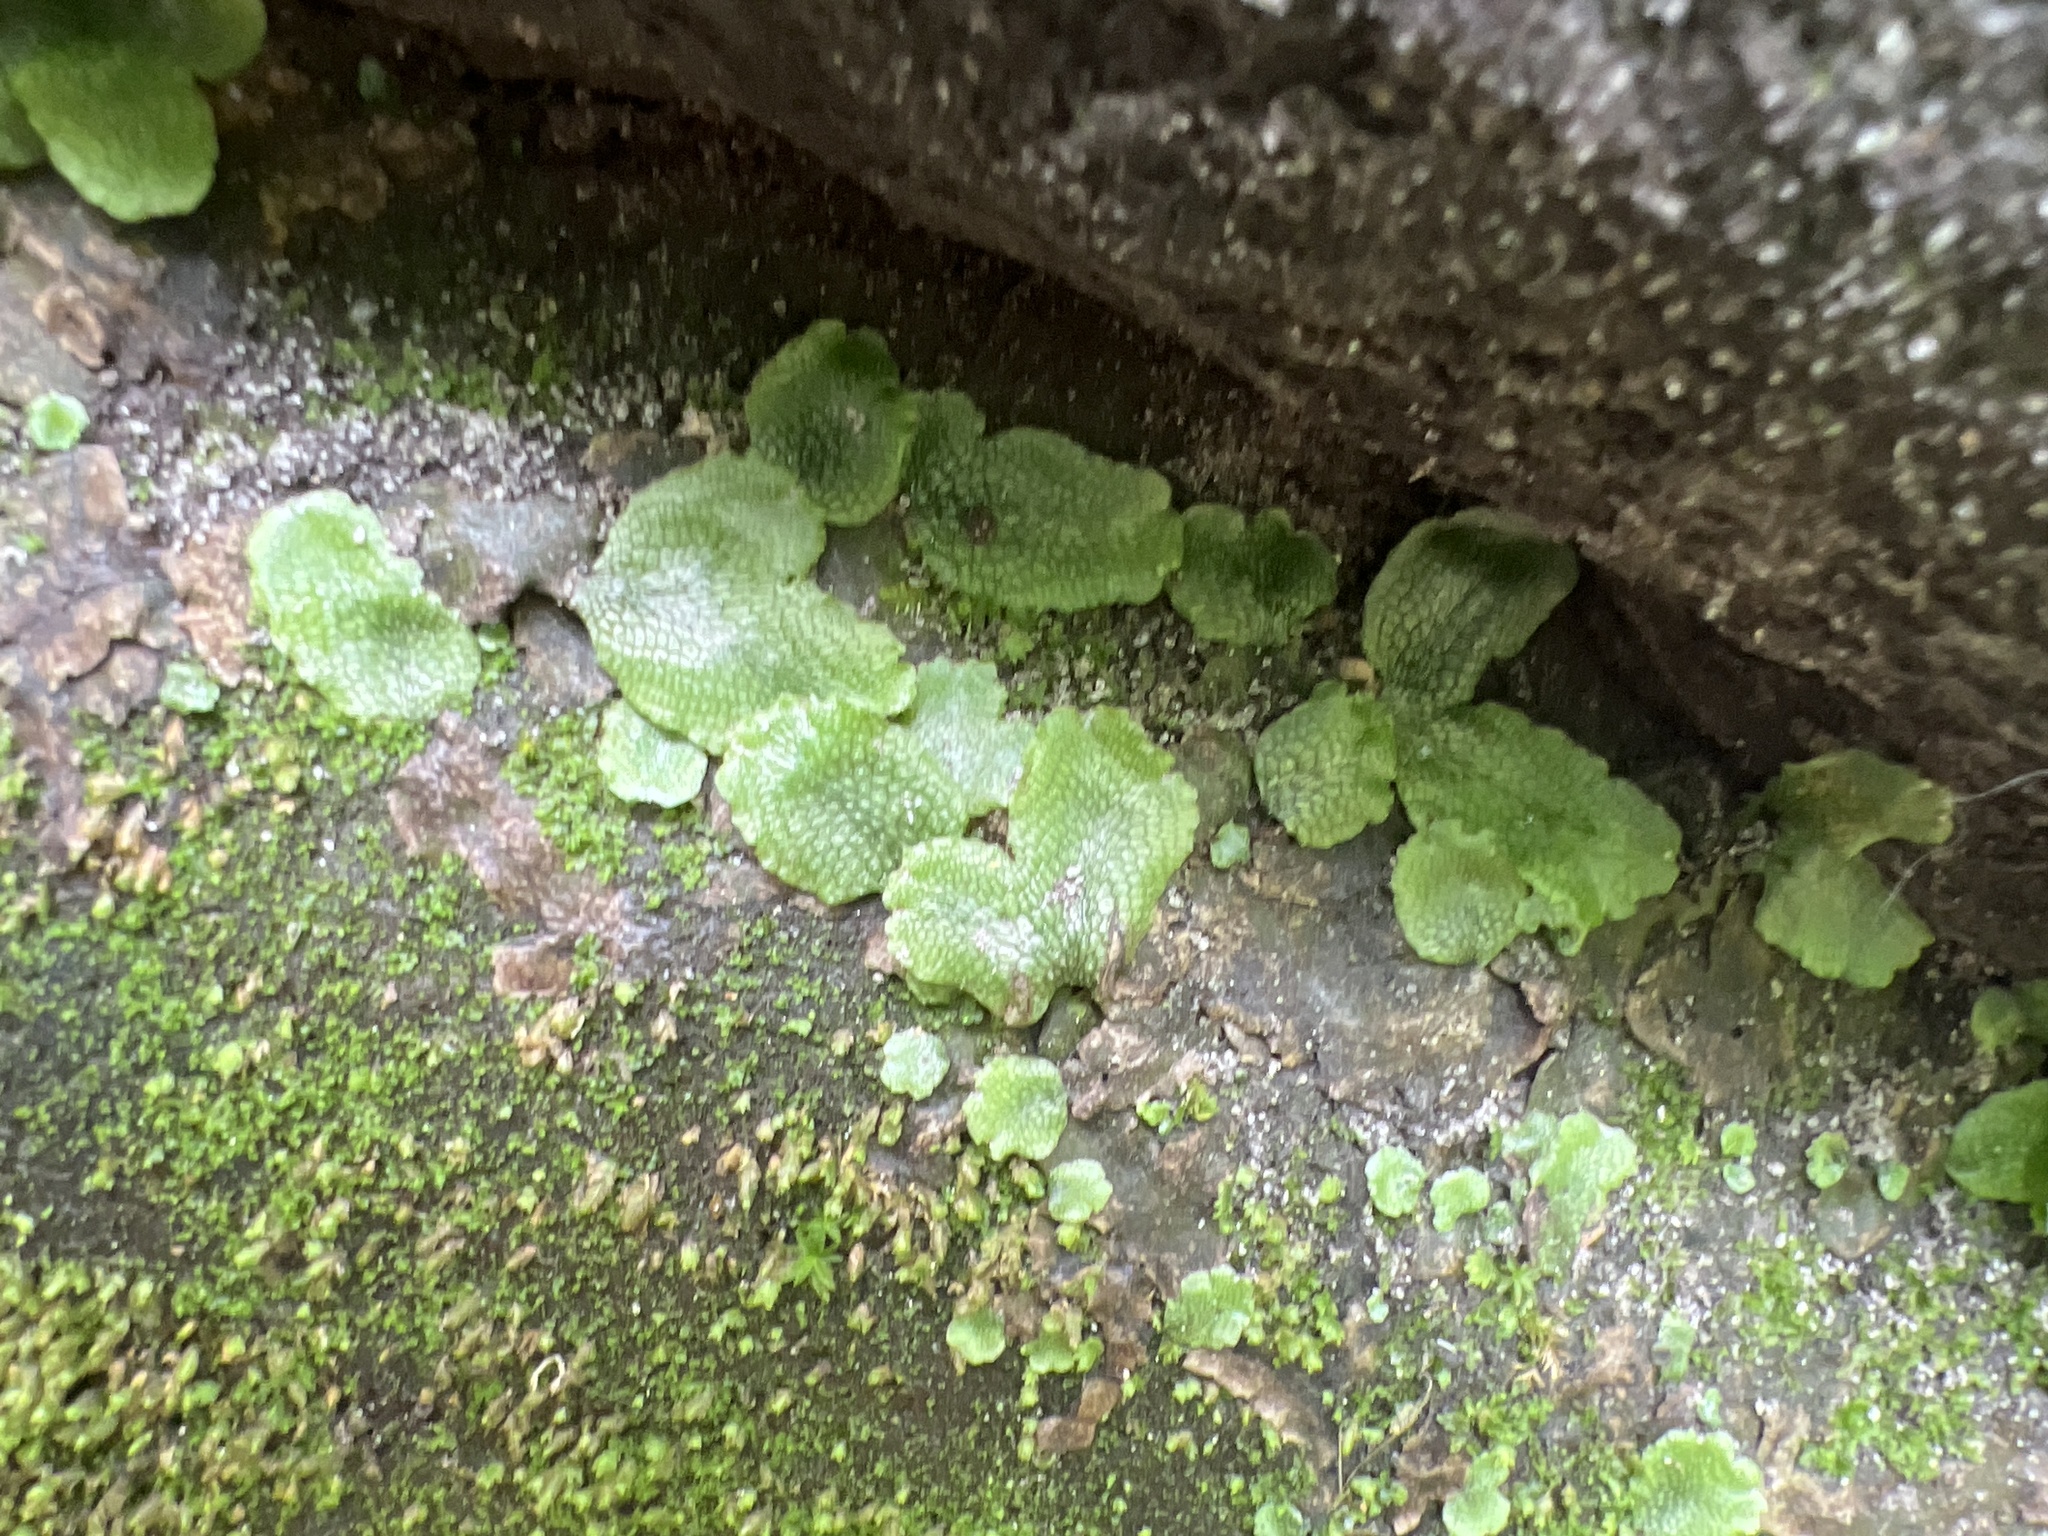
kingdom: Plantae
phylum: Marchantiophyta
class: Marchantiopsida
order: Marchantiales
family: Conocephalaceae
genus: Conocephalum
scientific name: Conocephalum salebrosum
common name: Cat-tongue liverwort
